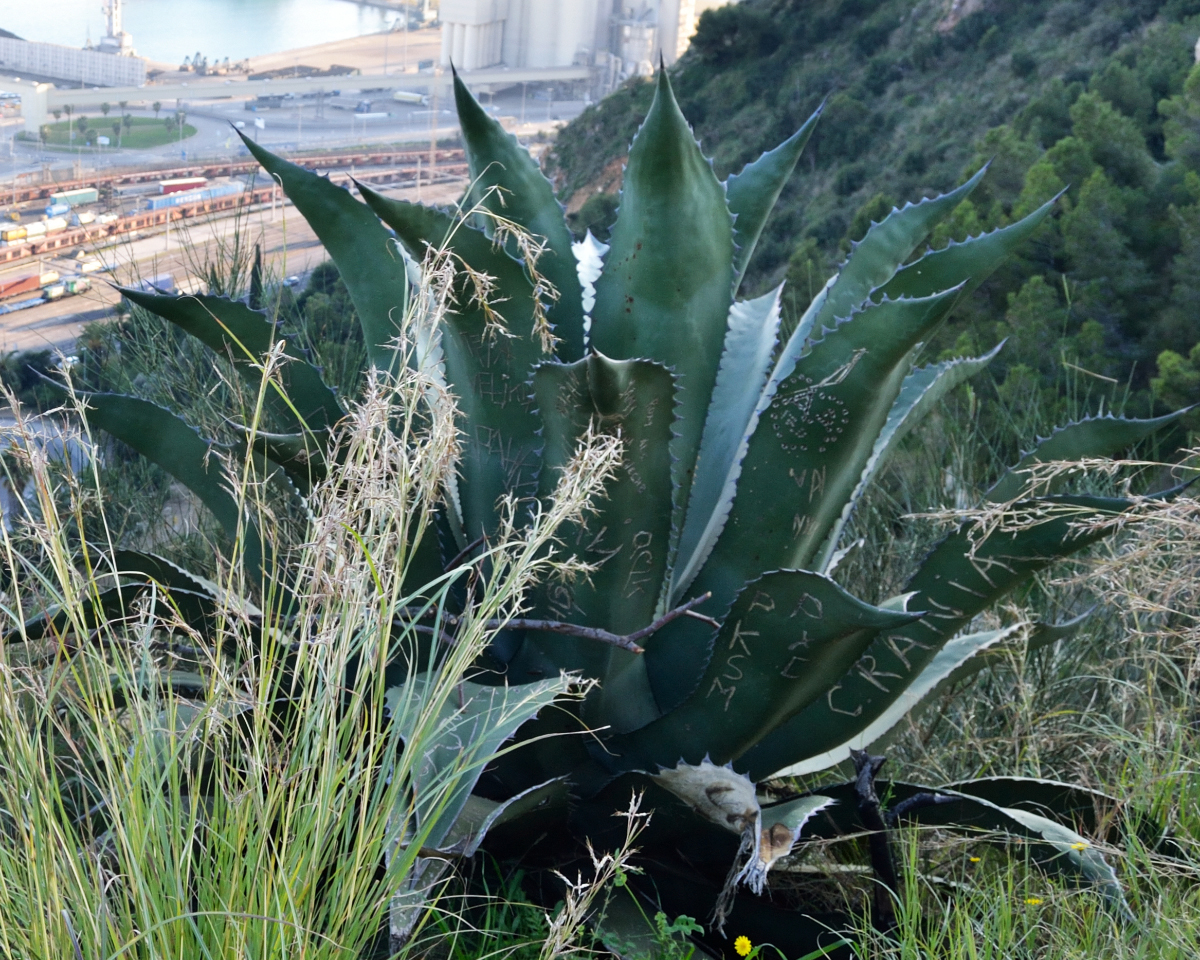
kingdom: Plantae
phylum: Tracheophyta
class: Liliopsida
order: Asparagales
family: Asparagaceae
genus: Agave
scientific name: Agave salmiana
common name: Pulque agave
